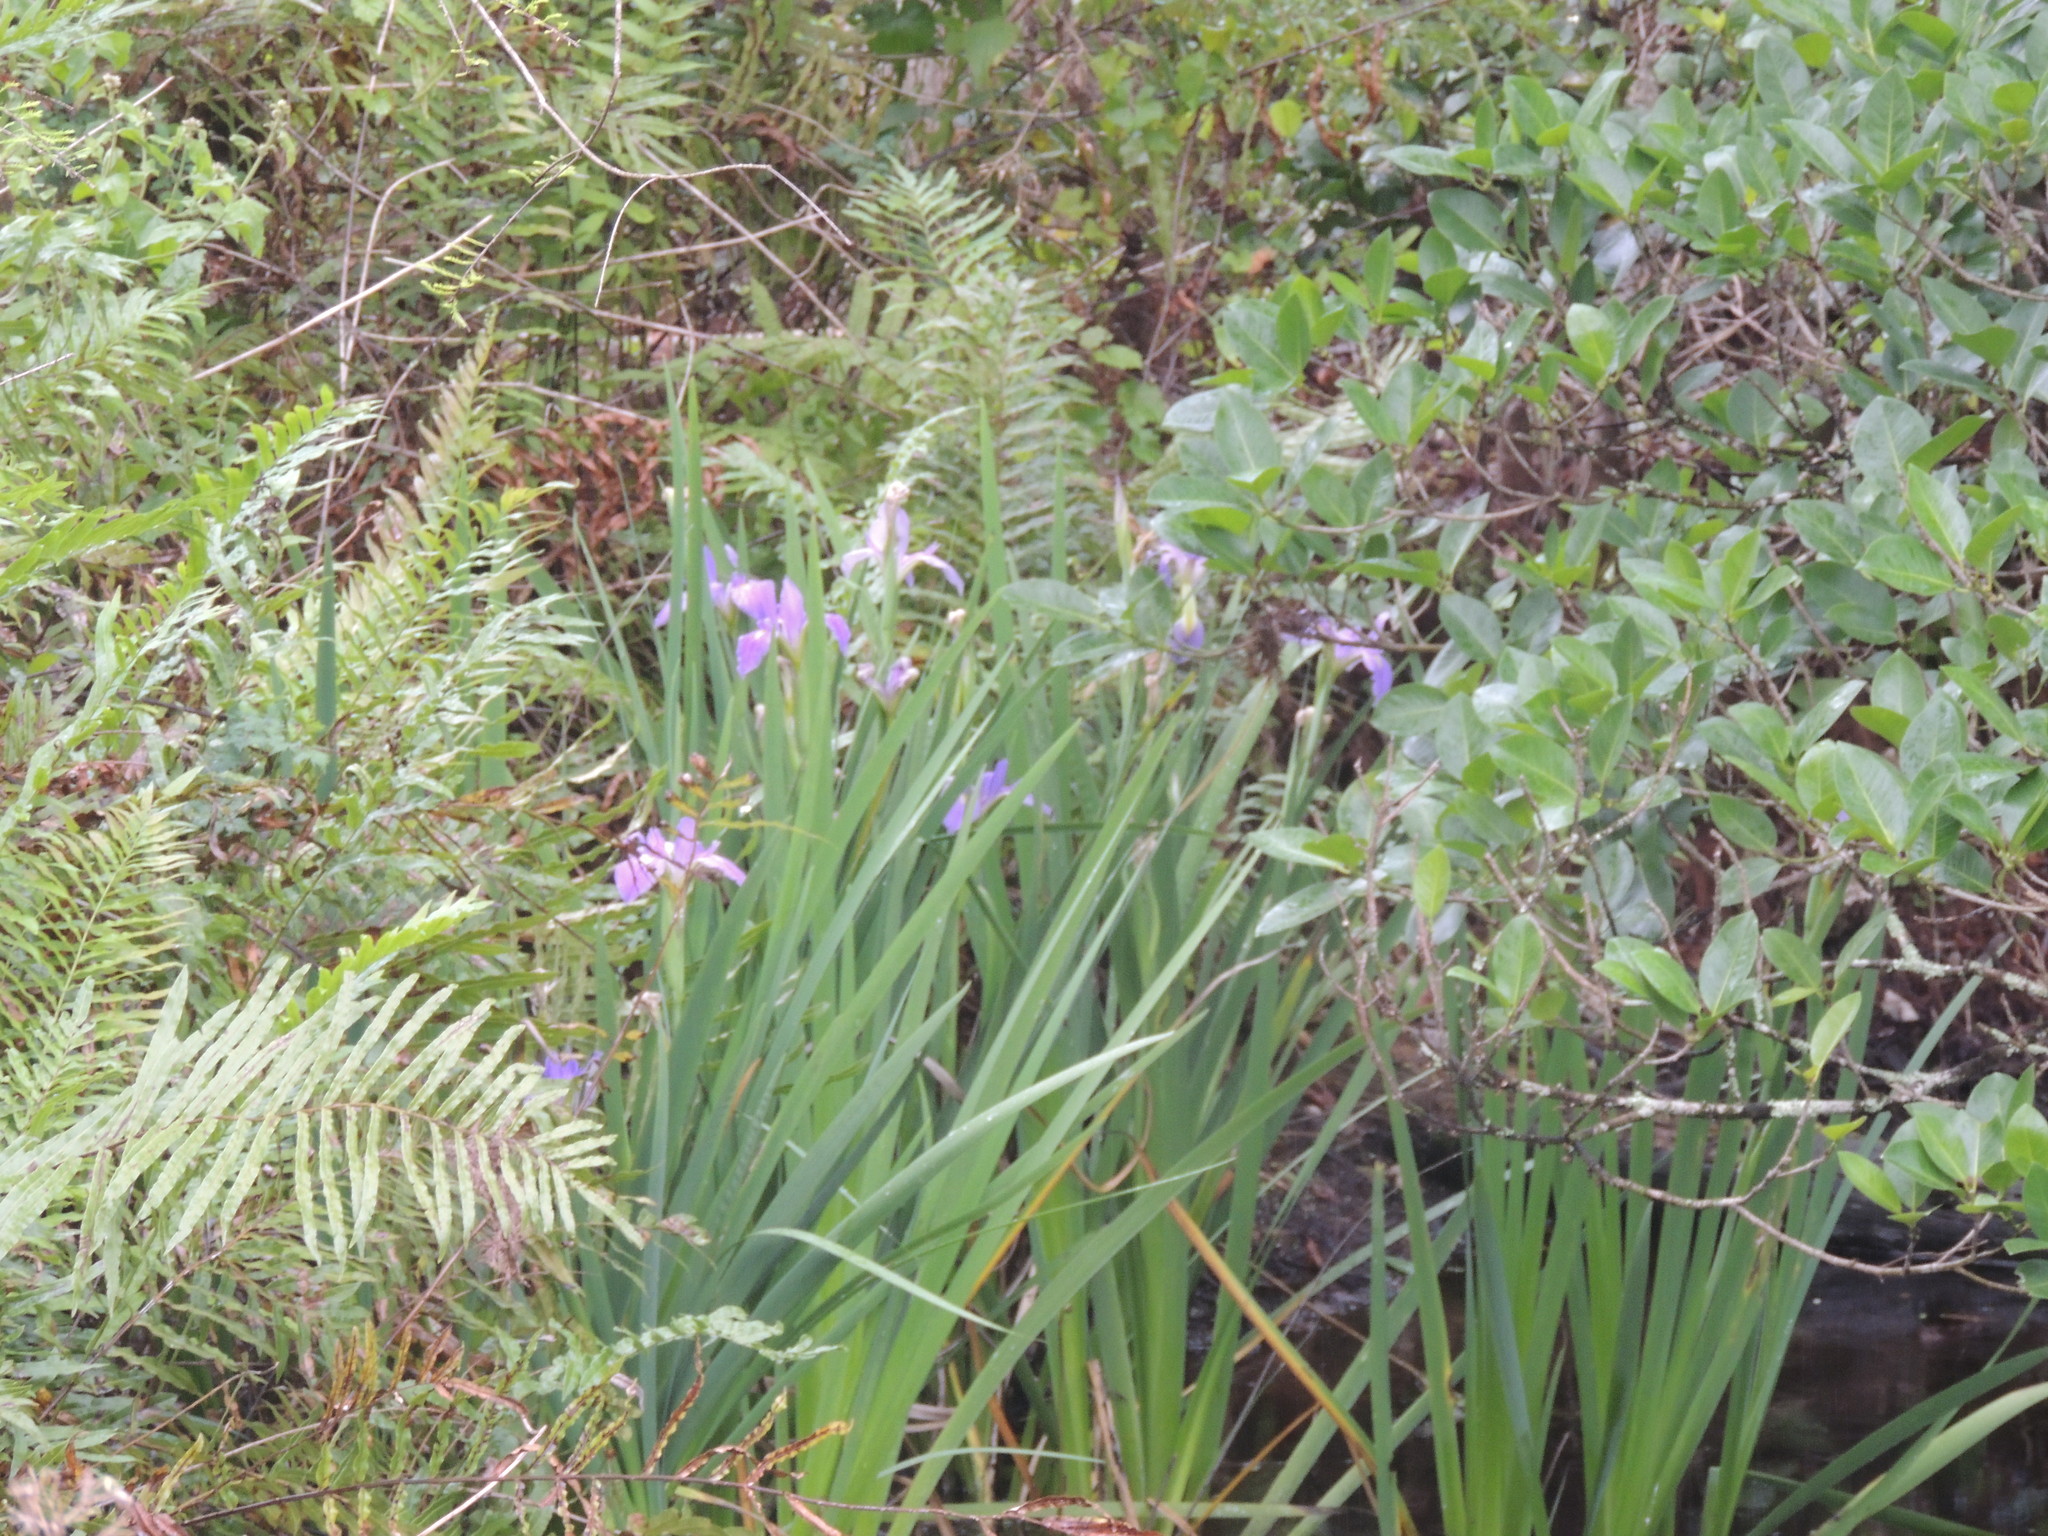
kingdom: Plantae
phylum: Tracheophyta
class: Liliopsida
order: Asparagales
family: Iridaceae
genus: Iris
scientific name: Iris savannarum
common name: Prairie iris
